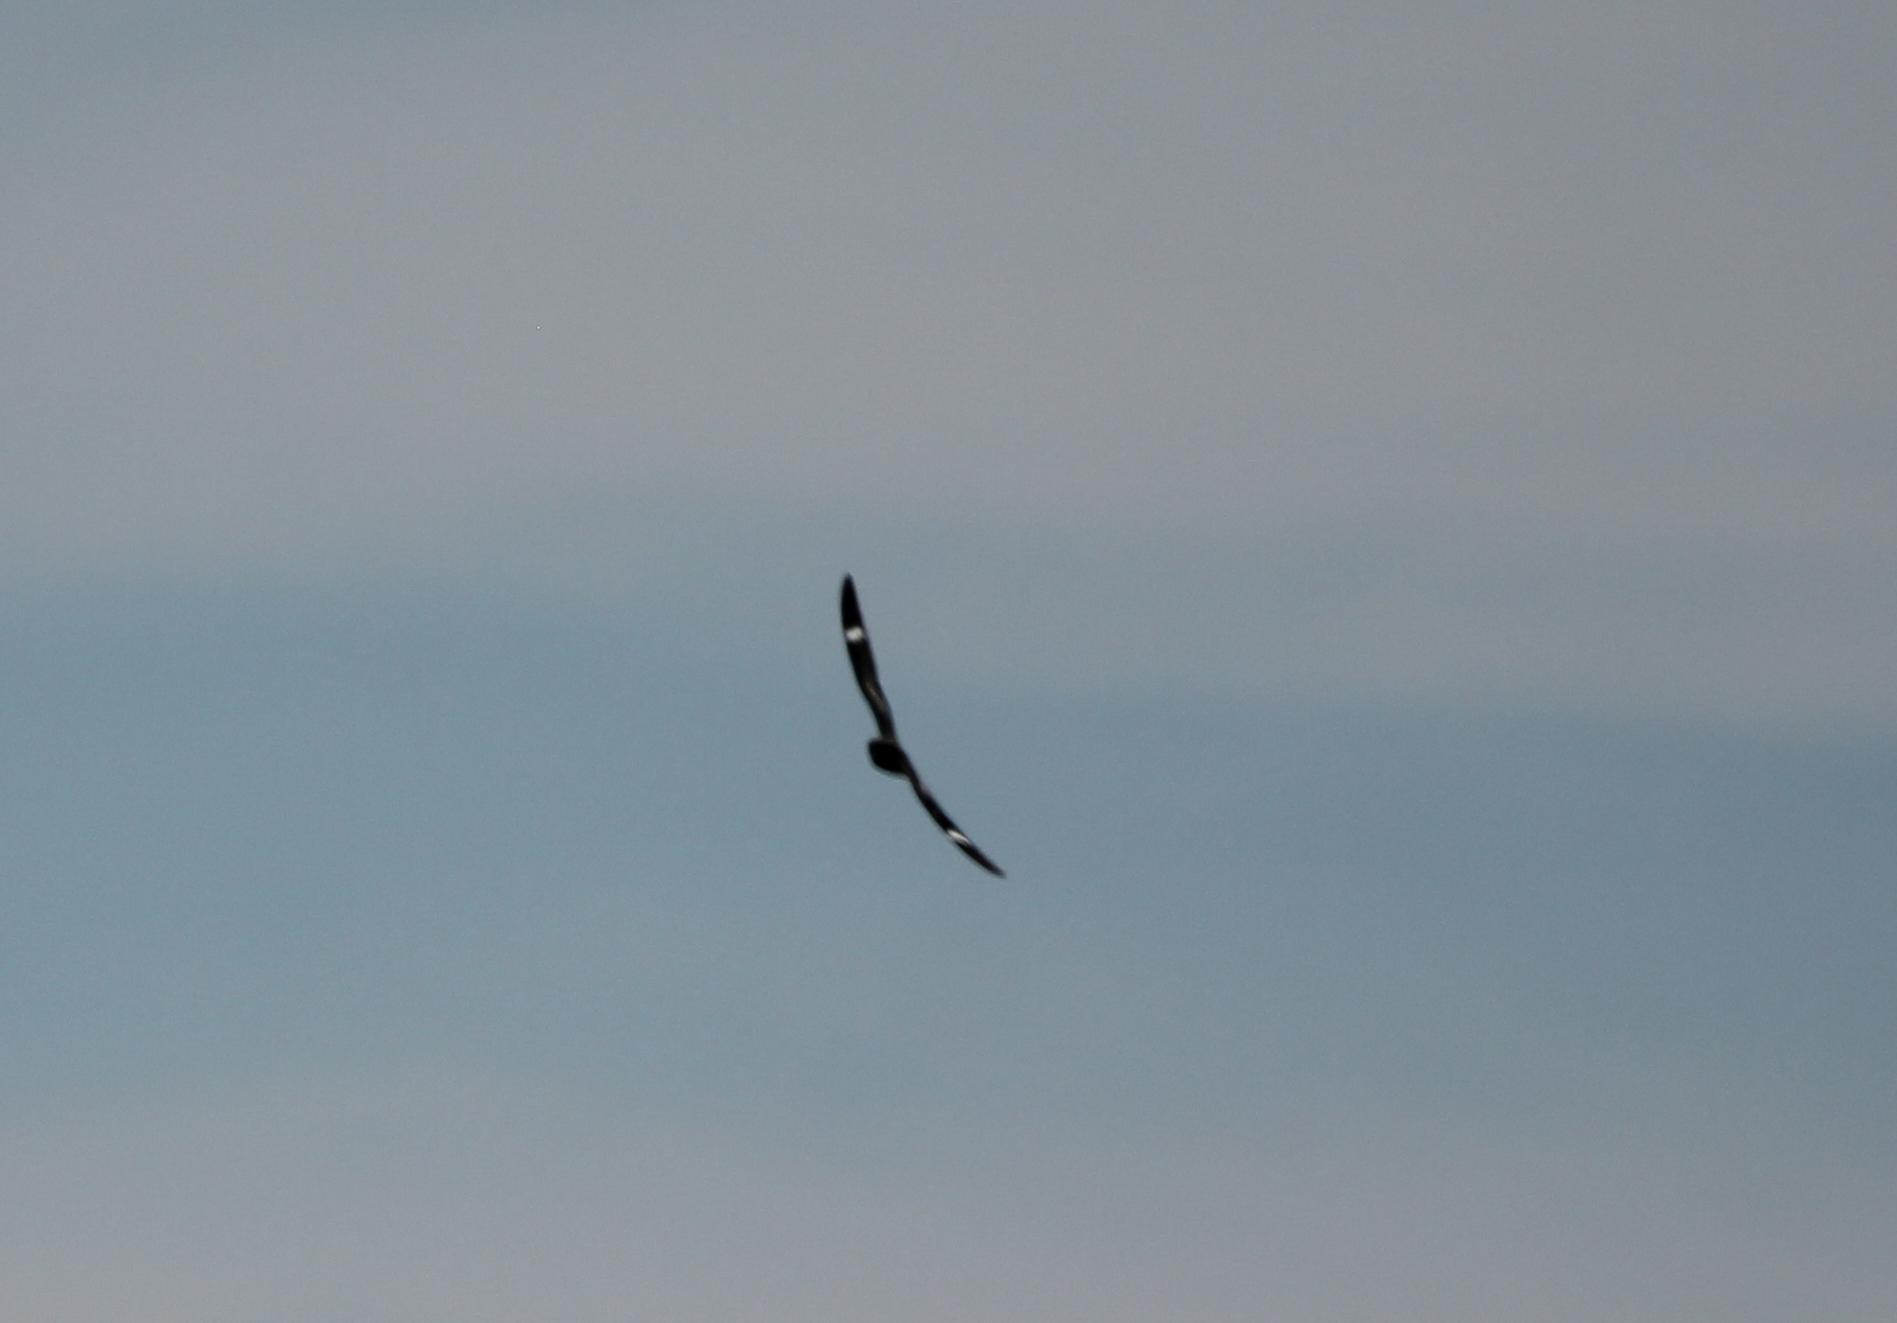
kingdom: Animalia
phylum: Chordata
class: Aves
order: Caprimulgiformes
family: Caprimulgidae
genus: Chordeiles
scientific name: Chordeiles minor
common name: Common nighthawk
